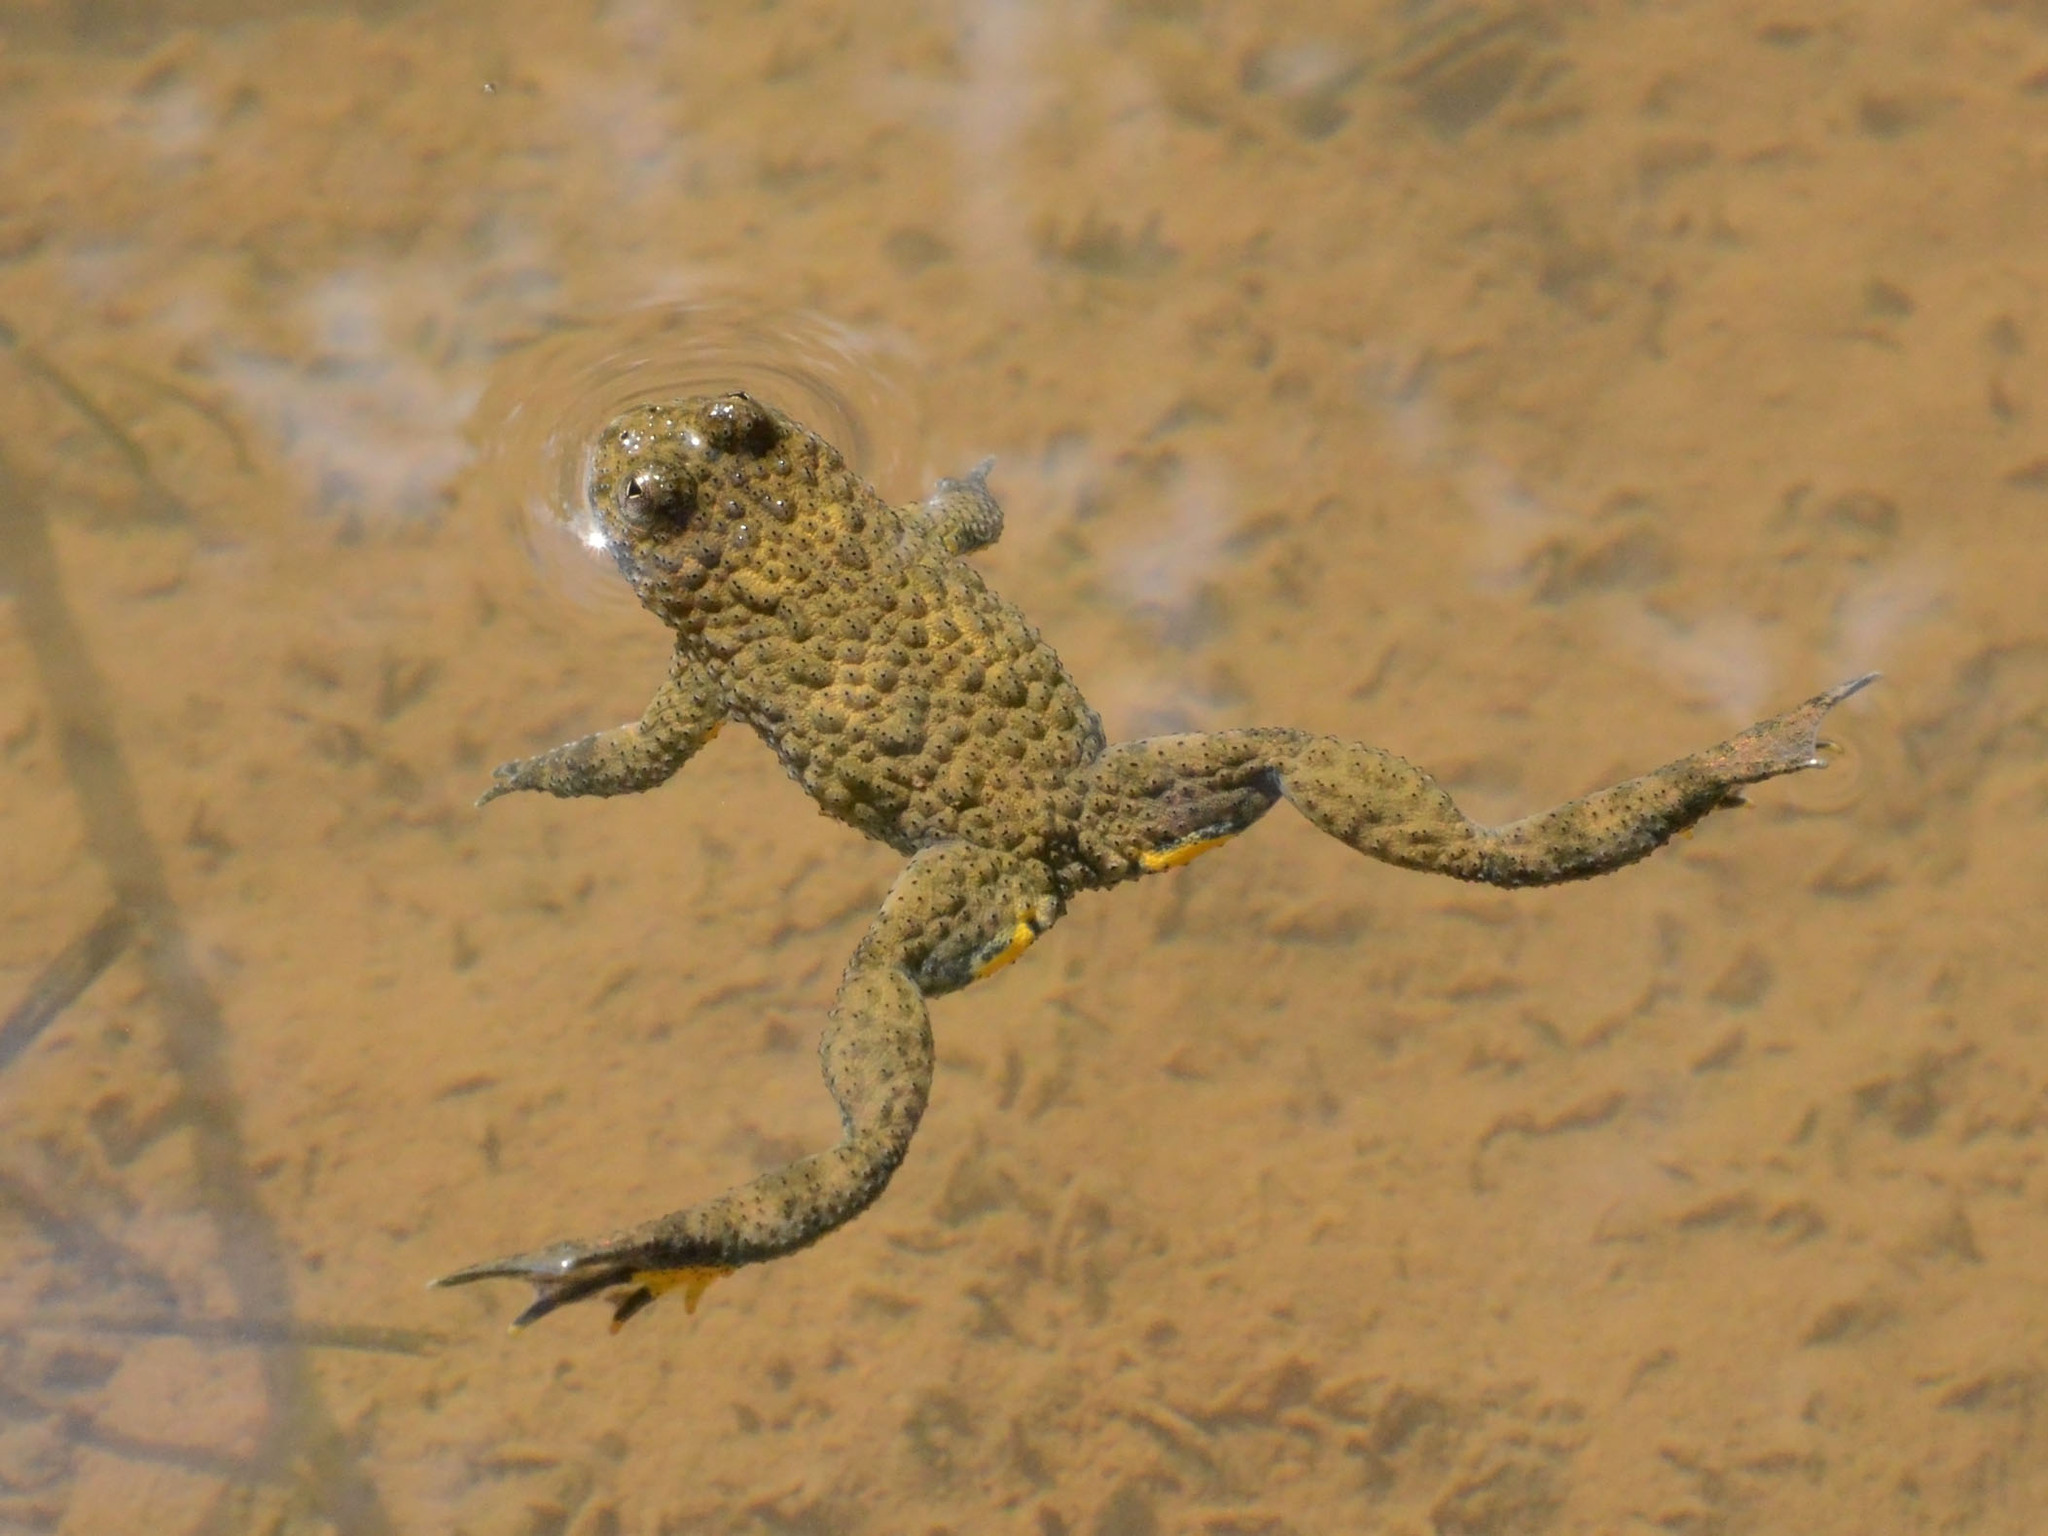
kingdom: Animalia
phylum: Chordata
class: Amphibia
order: Anura
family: Bombinatoridae
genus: Bombina
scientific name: Bombina variegata
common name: Yellow-bellied toad
